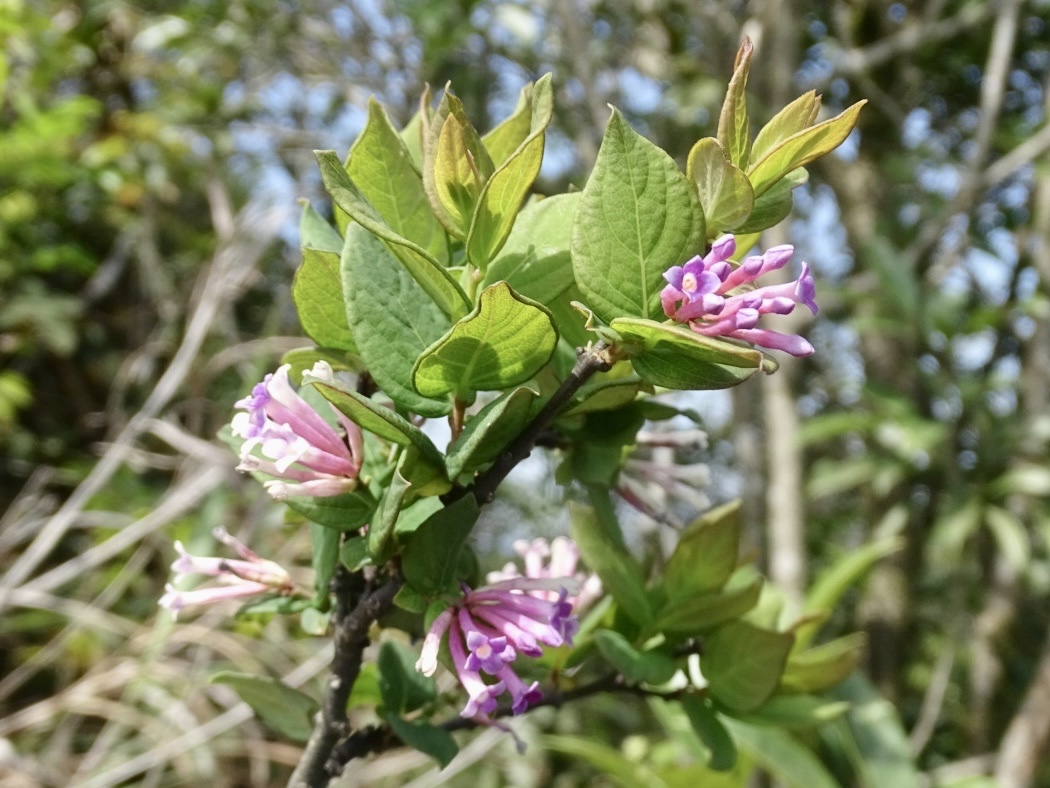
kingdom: Plantae
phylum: Tracheophyta
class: Magnoliopsida
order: Malvales
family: Thymelaeaceae
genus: Wikstroemia
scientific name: Wikstroemia monnula
